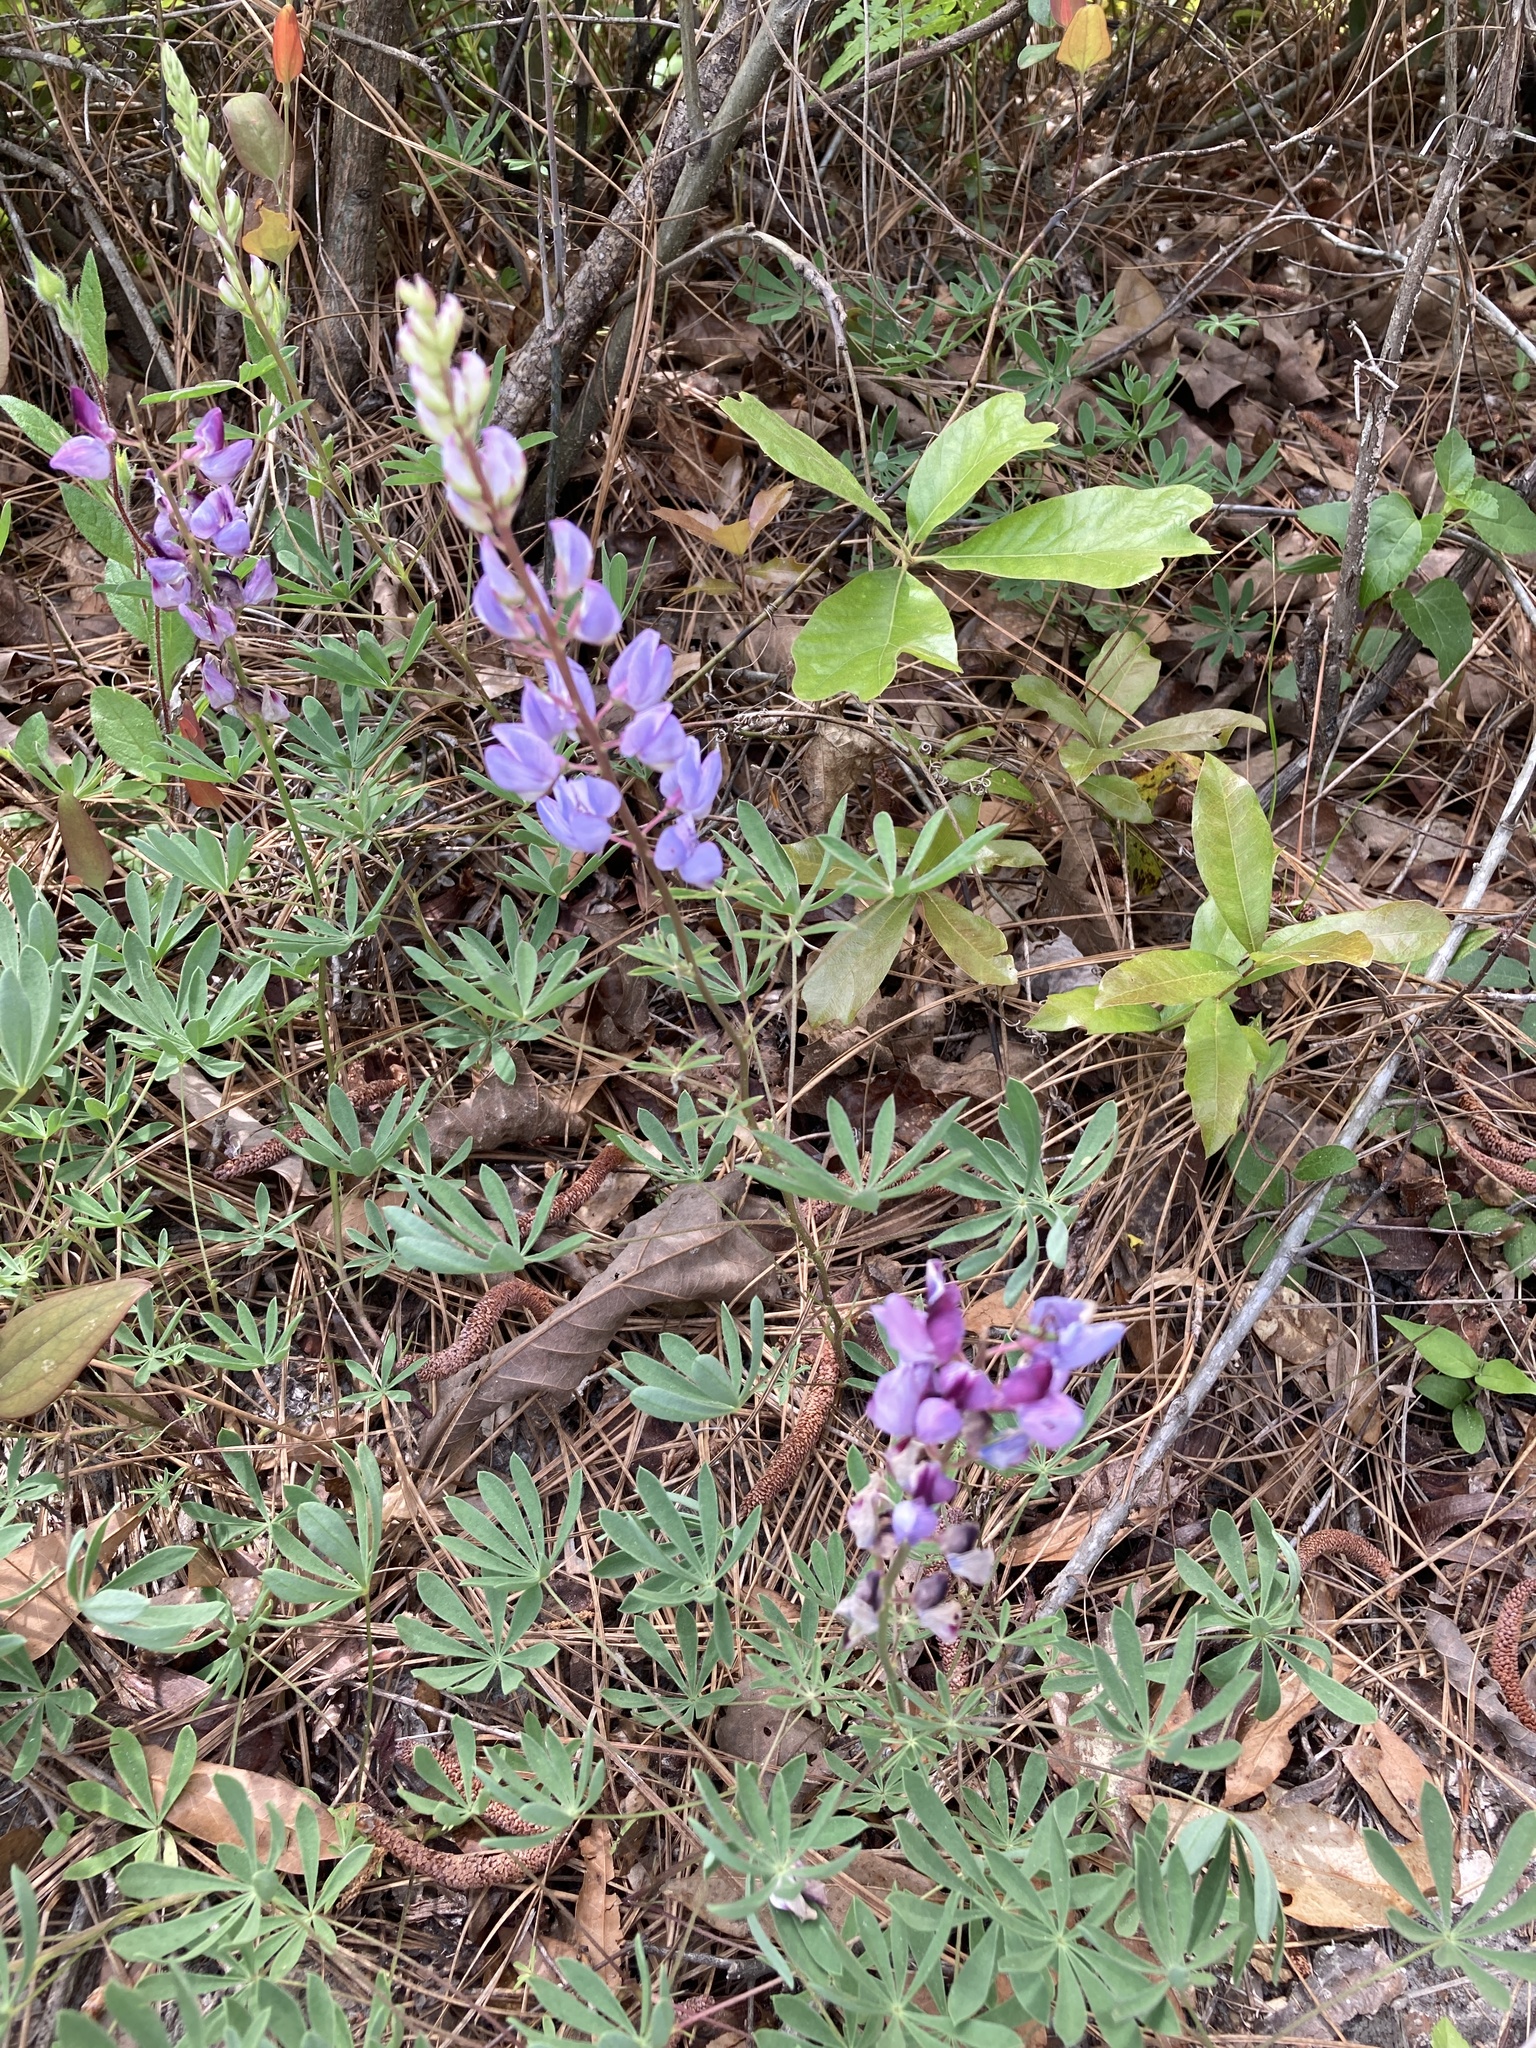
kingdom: Plantae
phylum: Tracheophyta
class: Magnoliopsida
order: Fabales
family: Fabaceae
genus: Lupinus
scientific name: Lupinus perennis
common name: Sundial lupine
